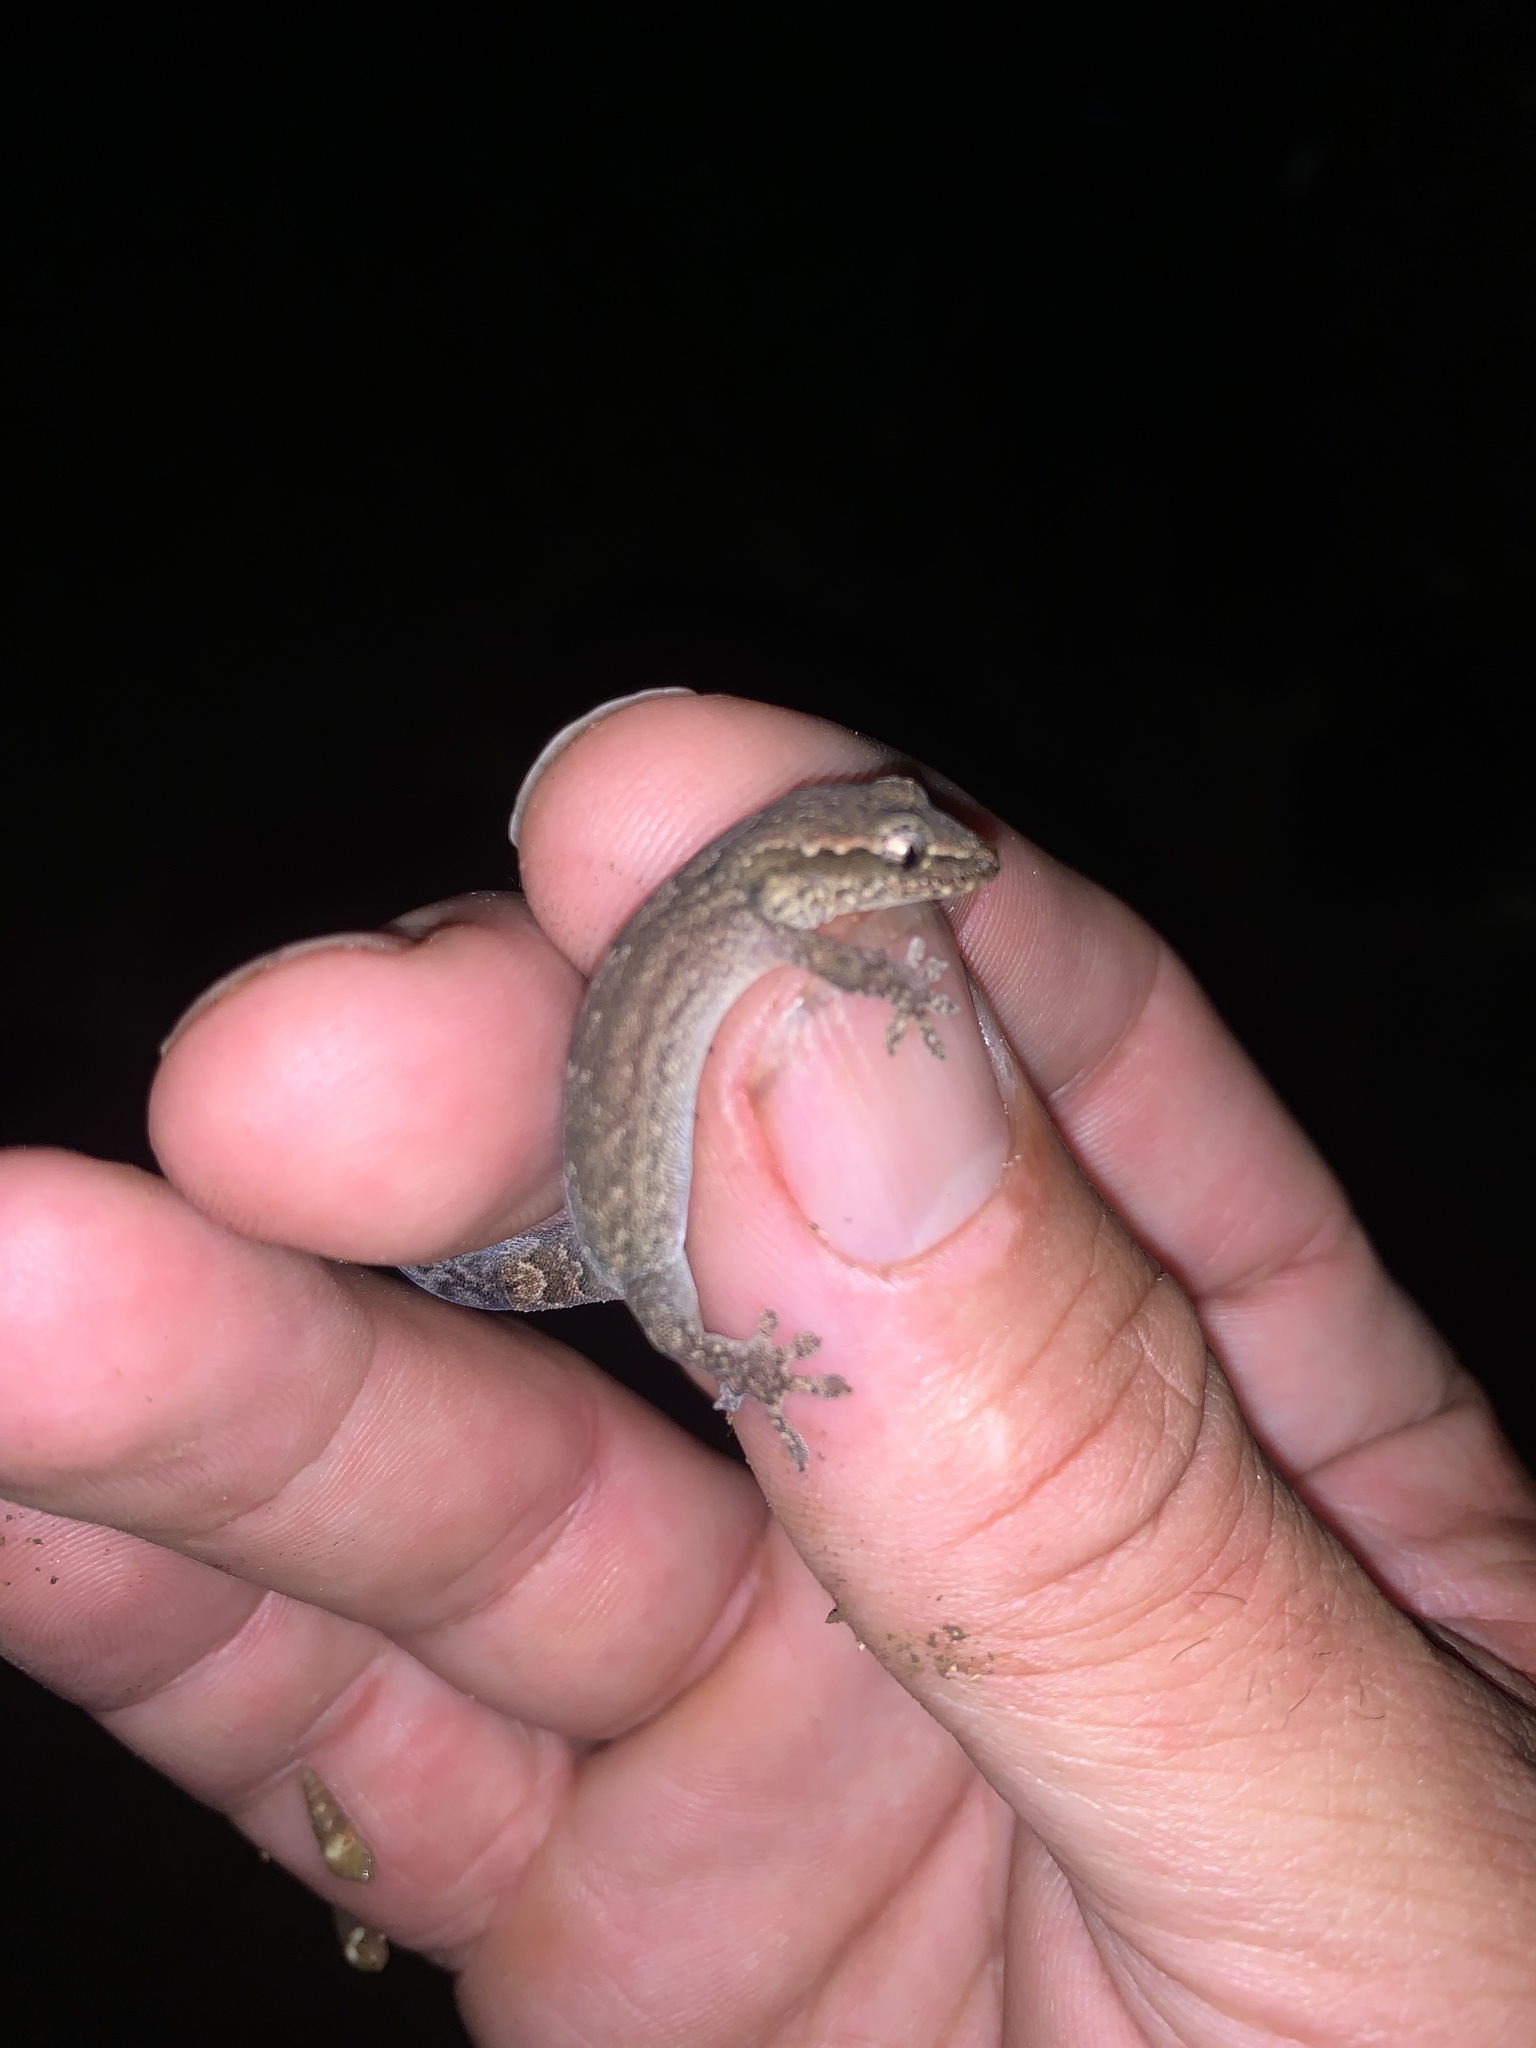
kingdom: Animalia
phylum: Chordata
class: Squamata
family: Gekkonidae
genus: Lepidodactylus
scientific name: Lepidodactylus lugubris
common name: Mourning gecko
